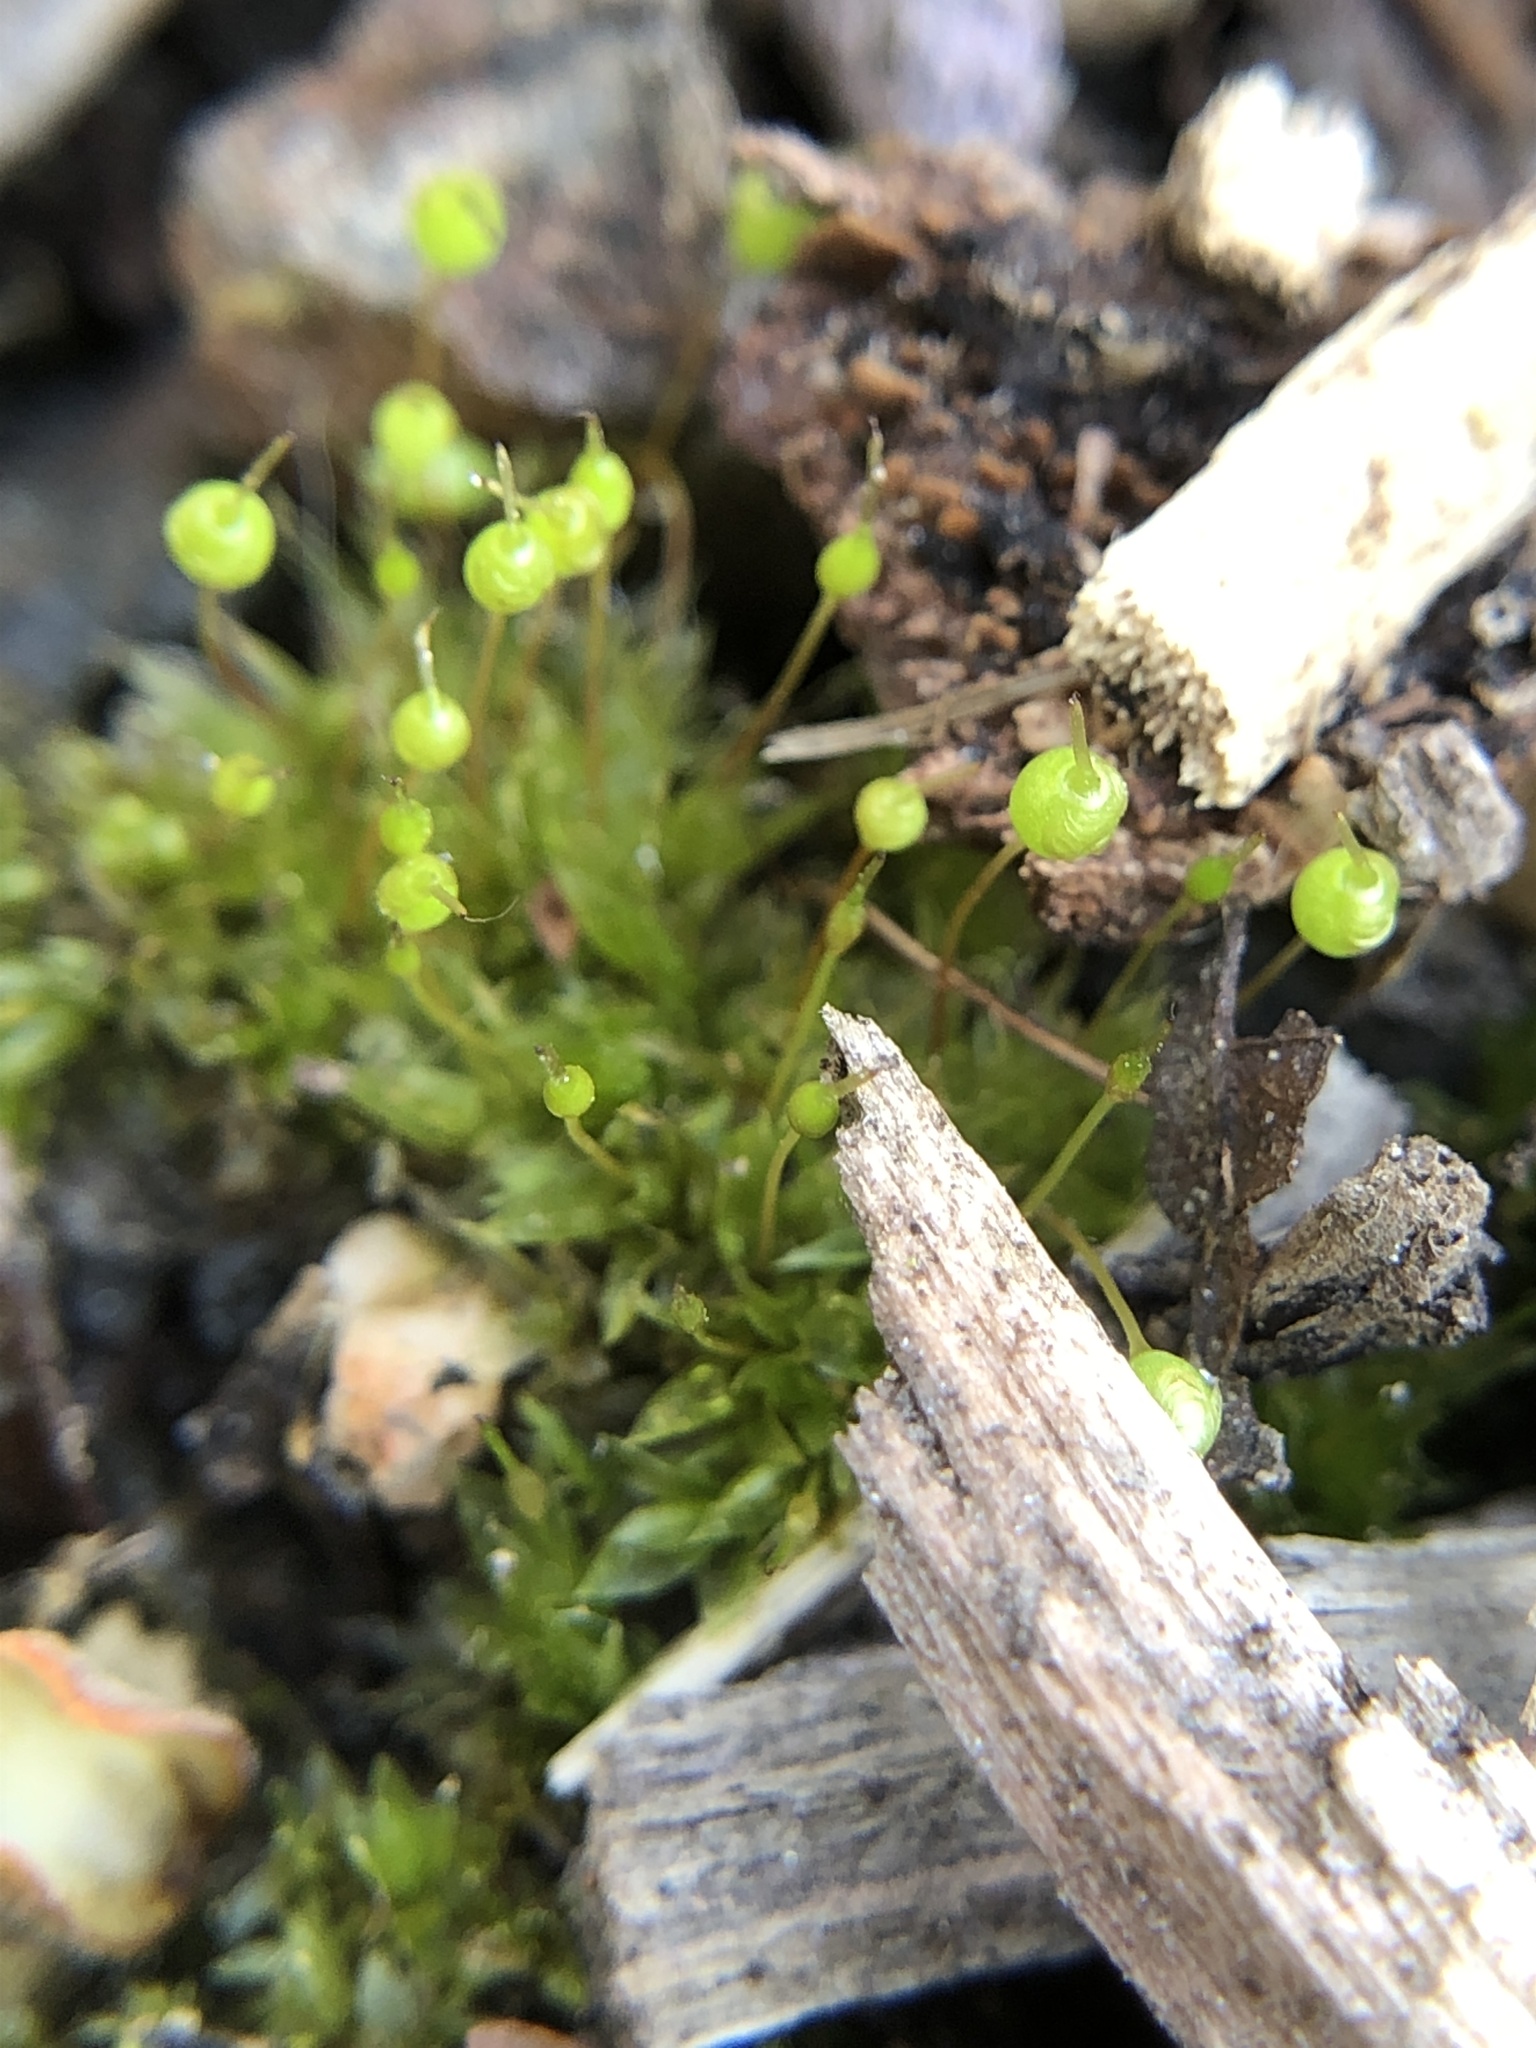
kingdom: Plantae
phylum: Bryophyta
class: Bryopsida
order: Funariales
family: Funariaceae
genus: Physcomitrium
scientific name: Physcomitrium pyriforme
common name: Common bladder-moss
